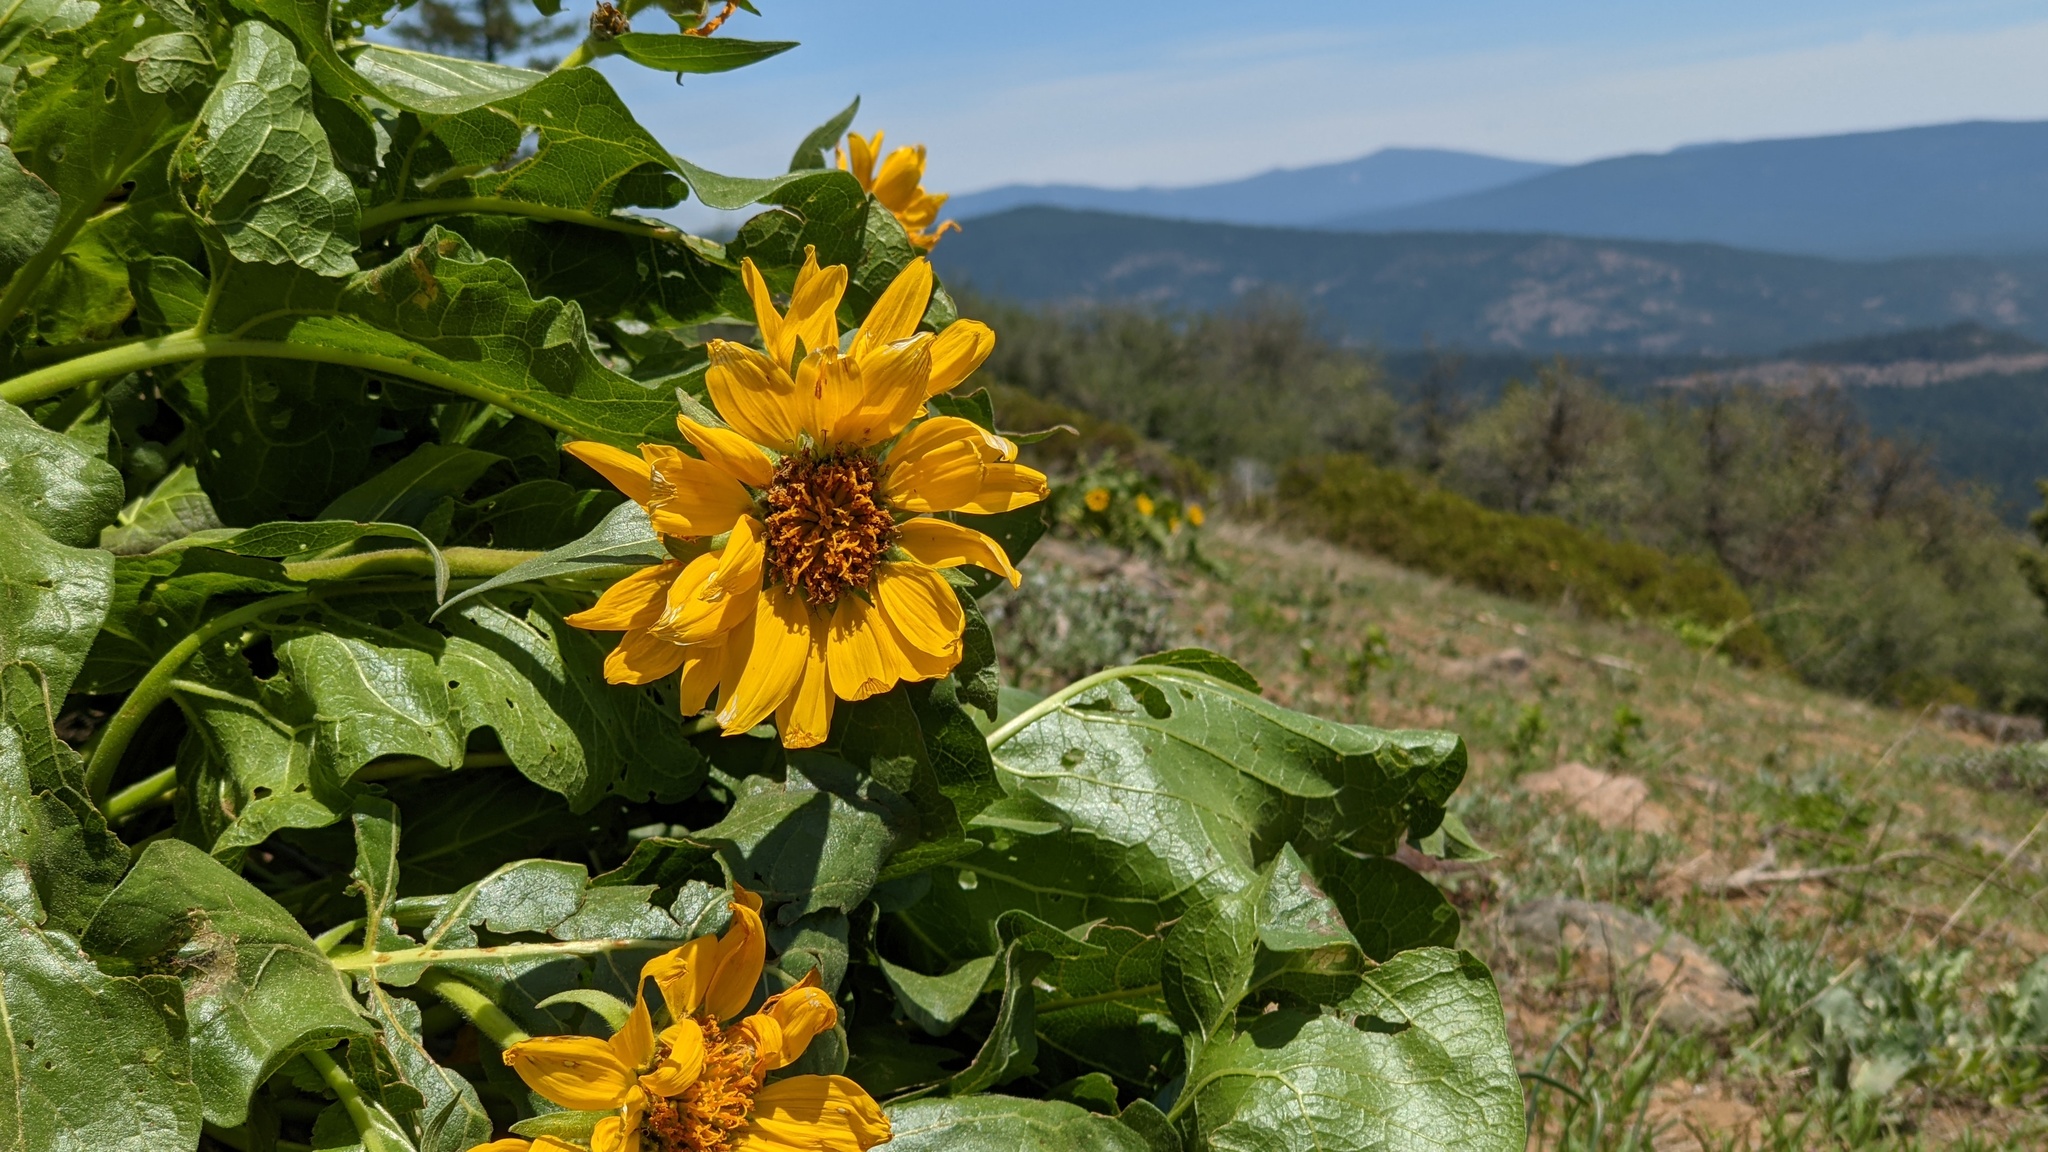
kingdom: Plantae
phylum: Tracheophyta
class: Magnoliopsida
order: Asterales
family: Asteraceae
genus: Balsamorhiza
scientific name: Balsamorhiza deltoidea
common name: Deltoid balsamroot
